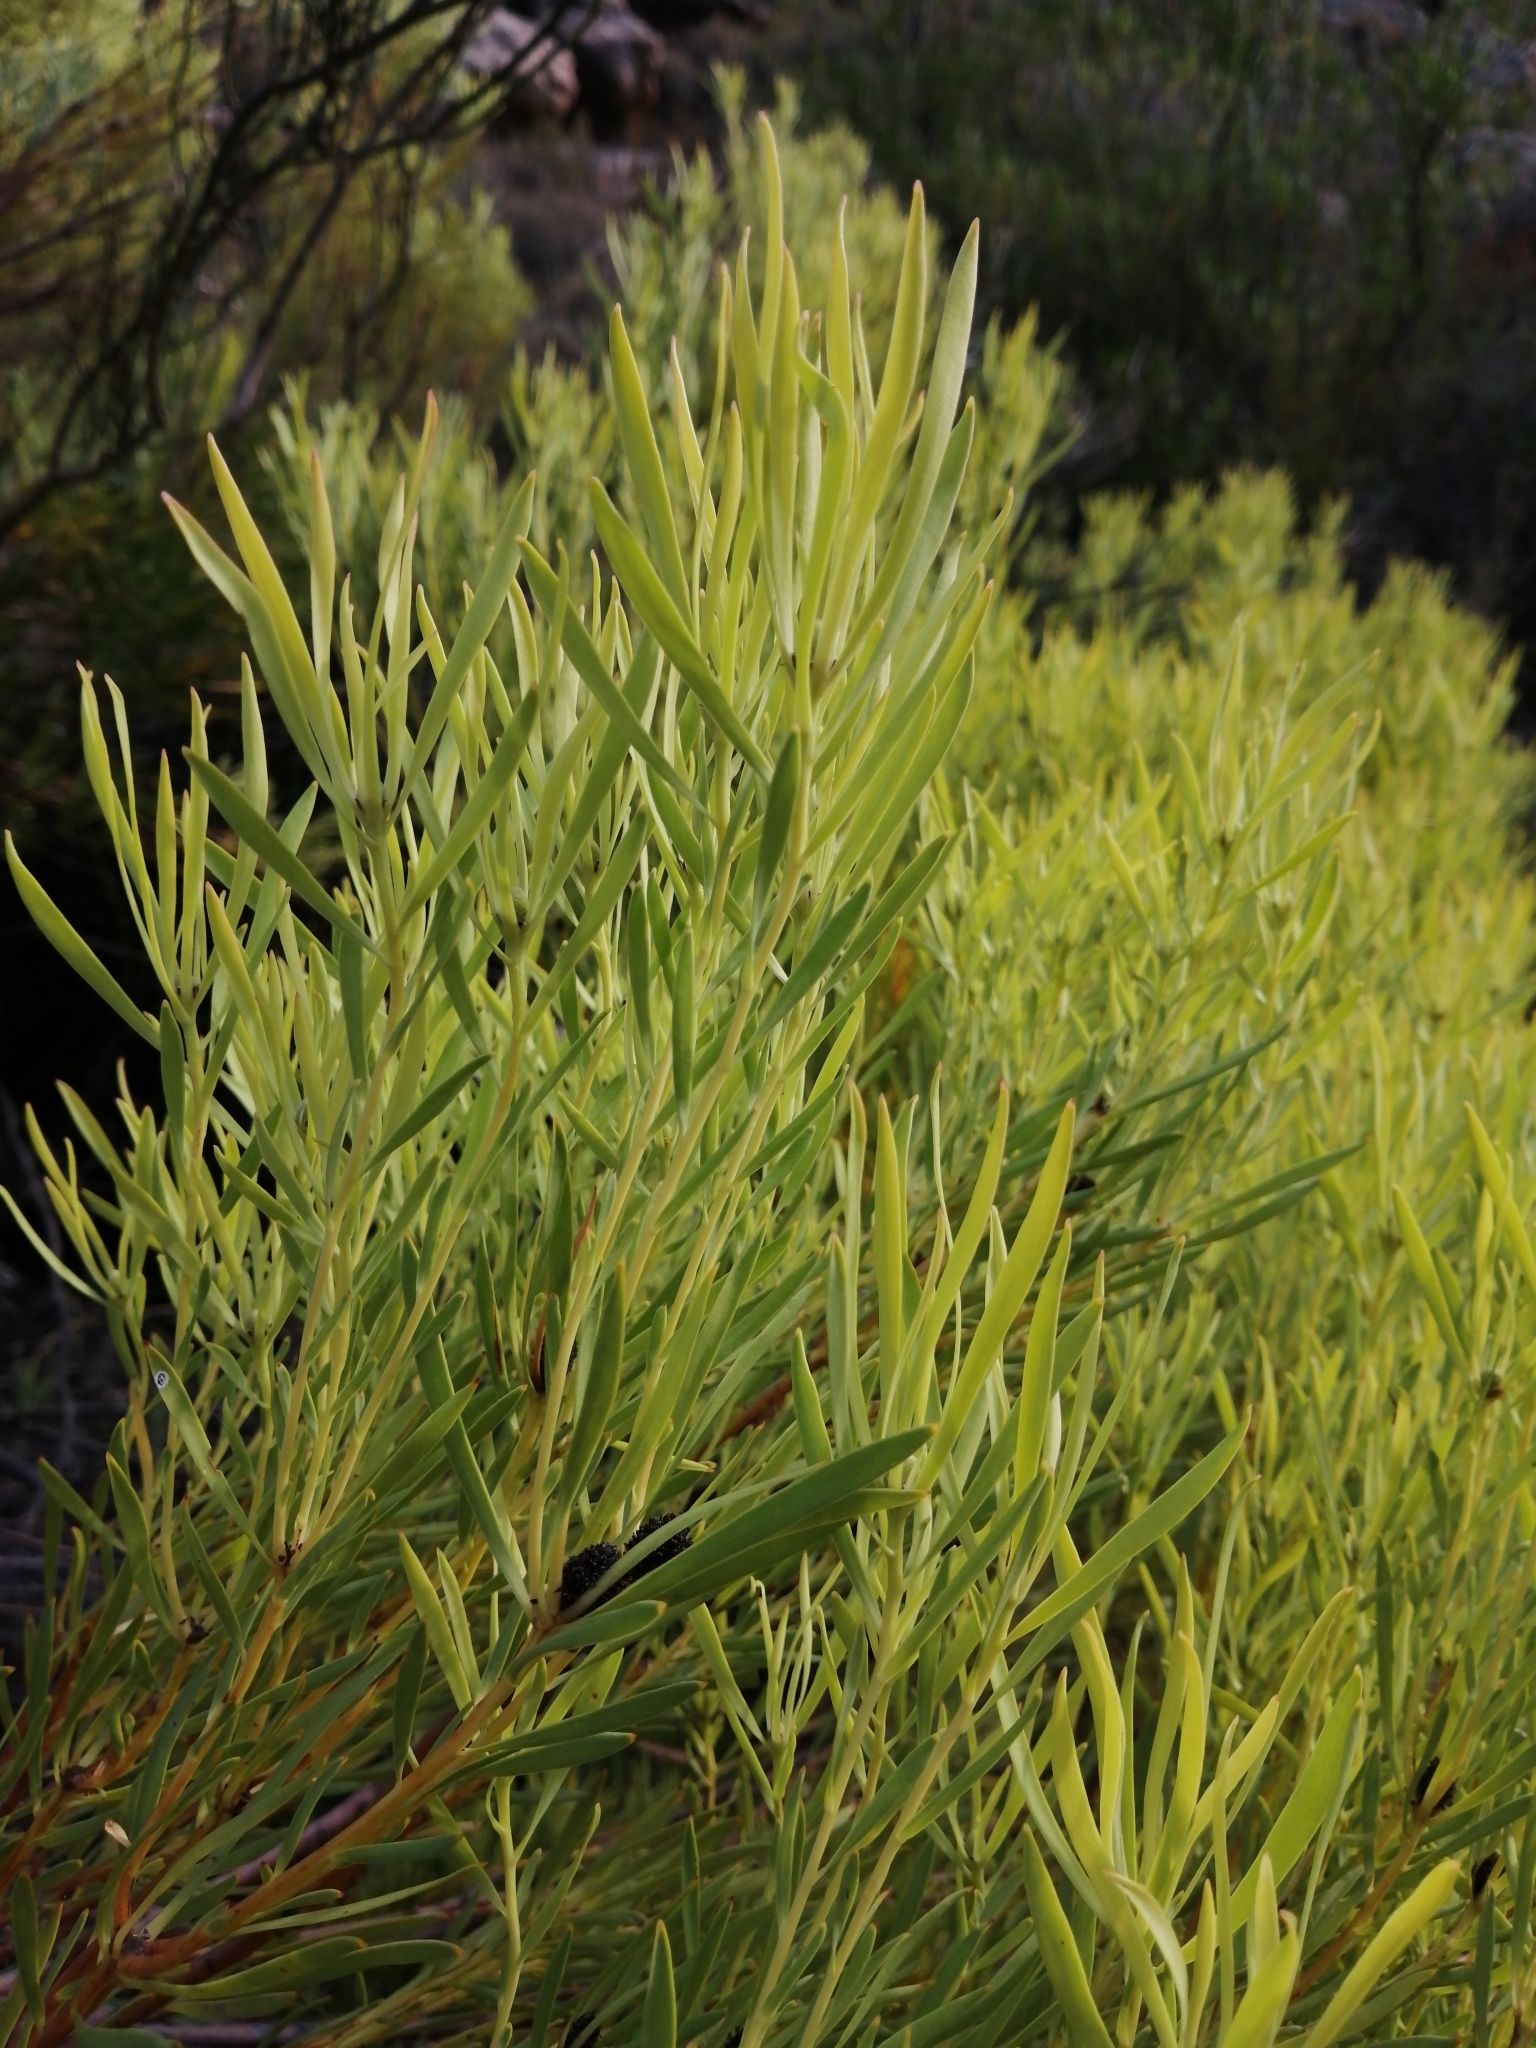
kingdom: Plantae
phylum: Tracheophyta
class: Magnoliopsida
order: Proteales
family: Proteaceae
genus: Leucadendron
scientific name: Leucadendron salignum
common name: Common sunshine conebush
